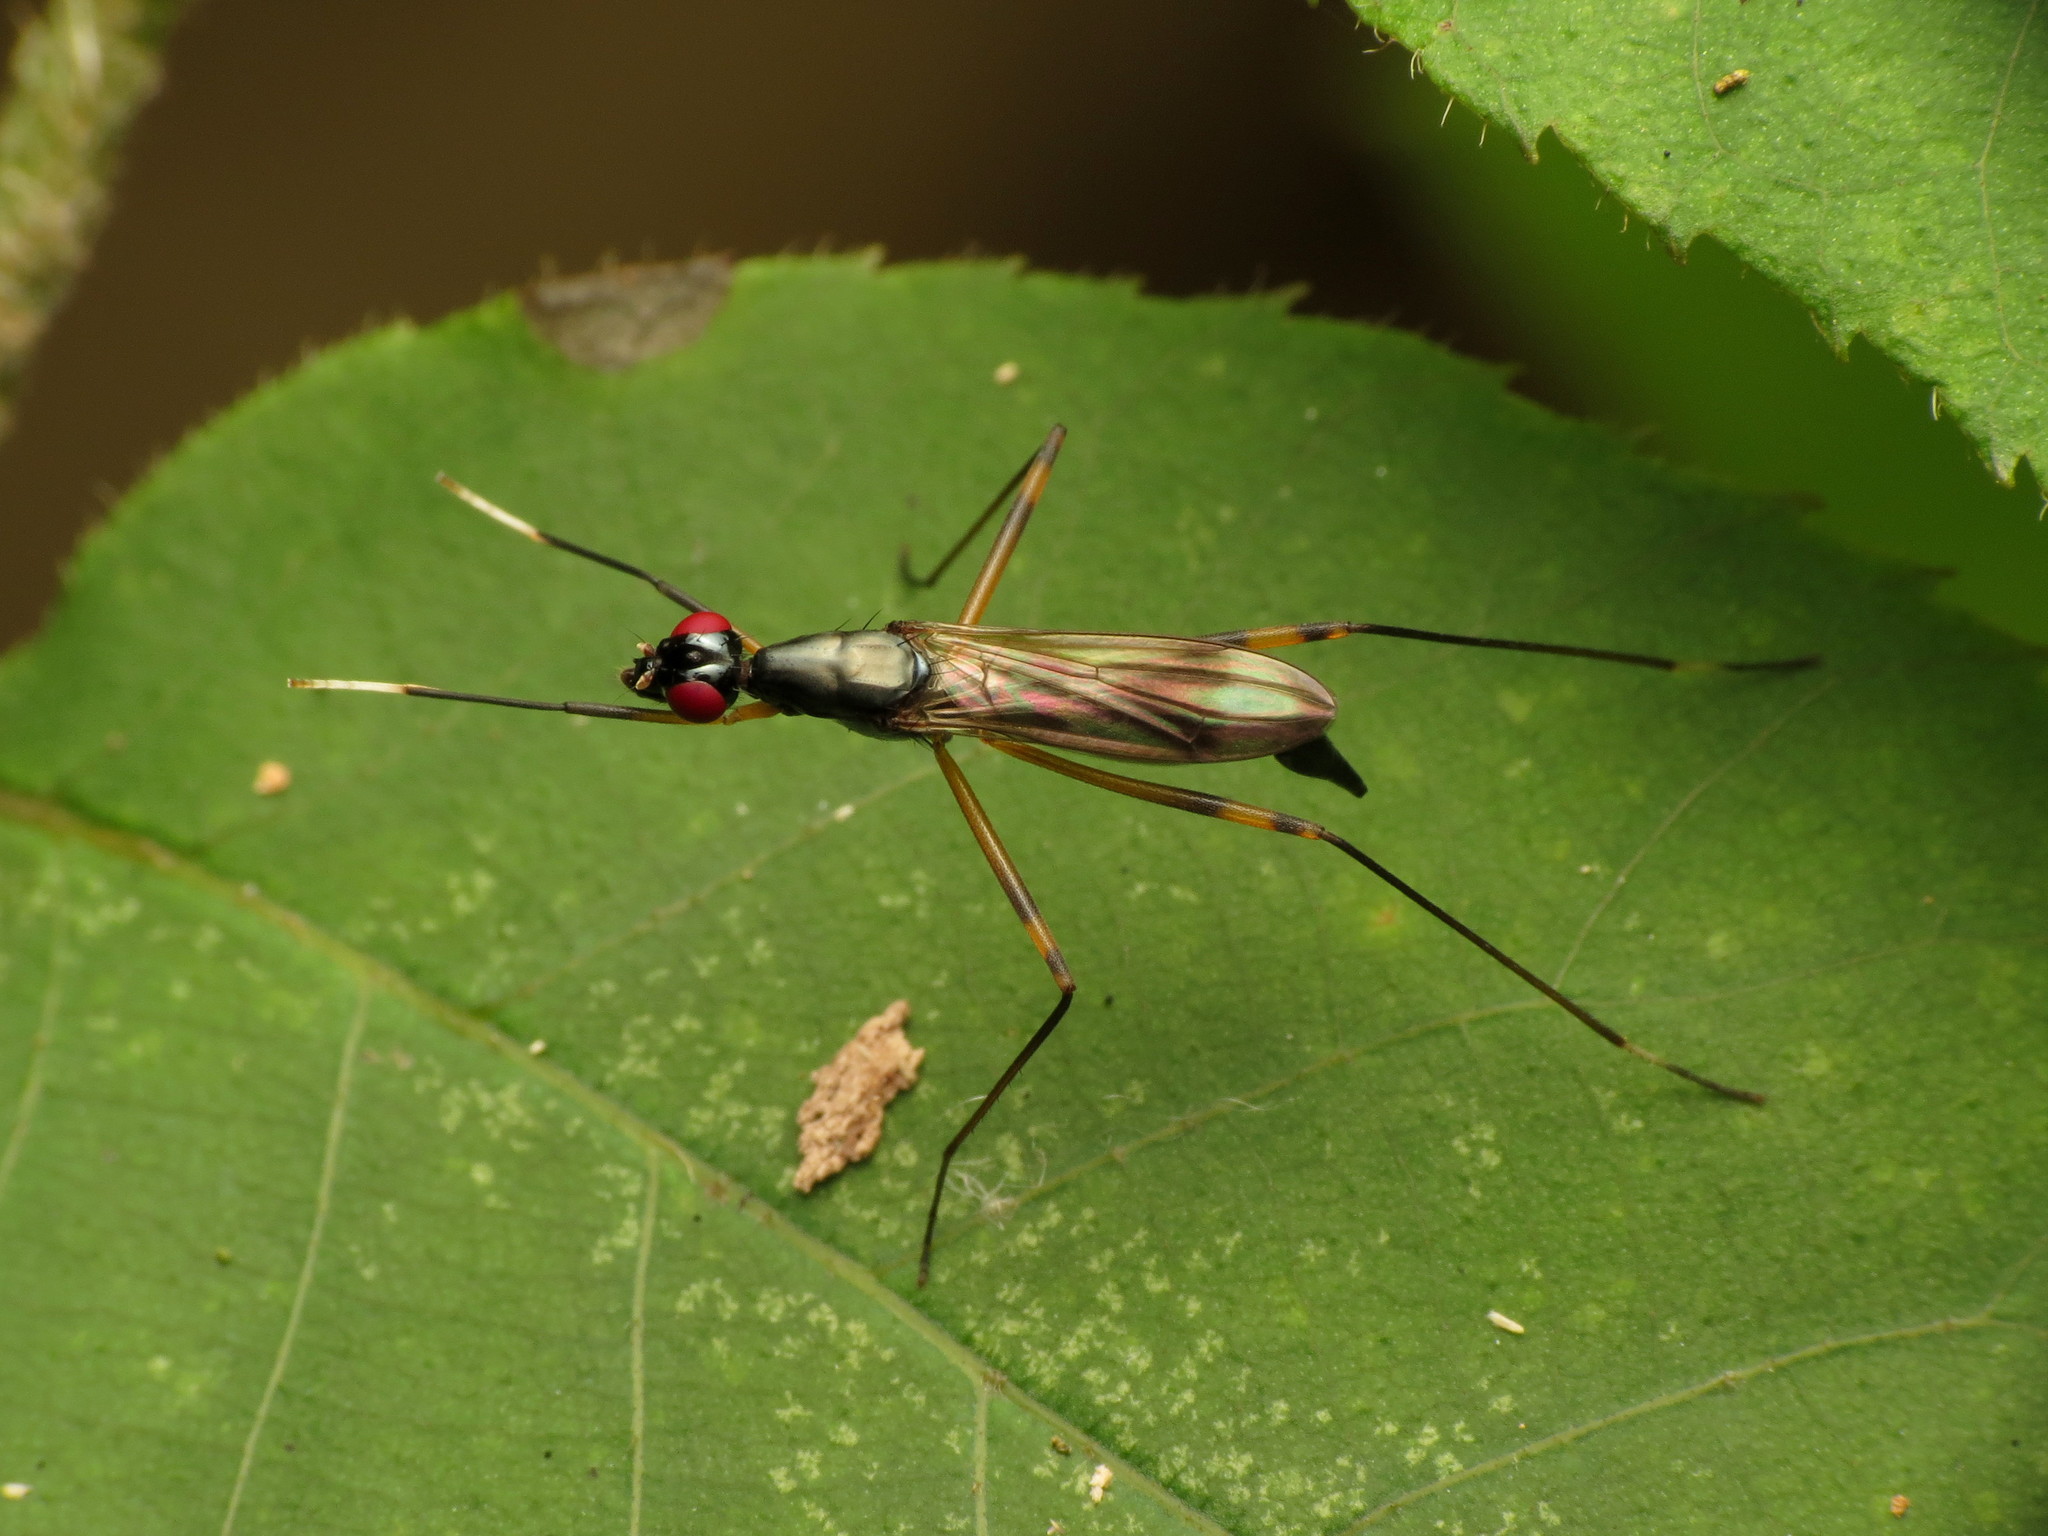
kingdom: Animalia
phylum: Arthropoda
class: Insecta
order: Diptera
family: Micropezidae
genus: Rainieria
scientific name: Rainieria antennaepes
